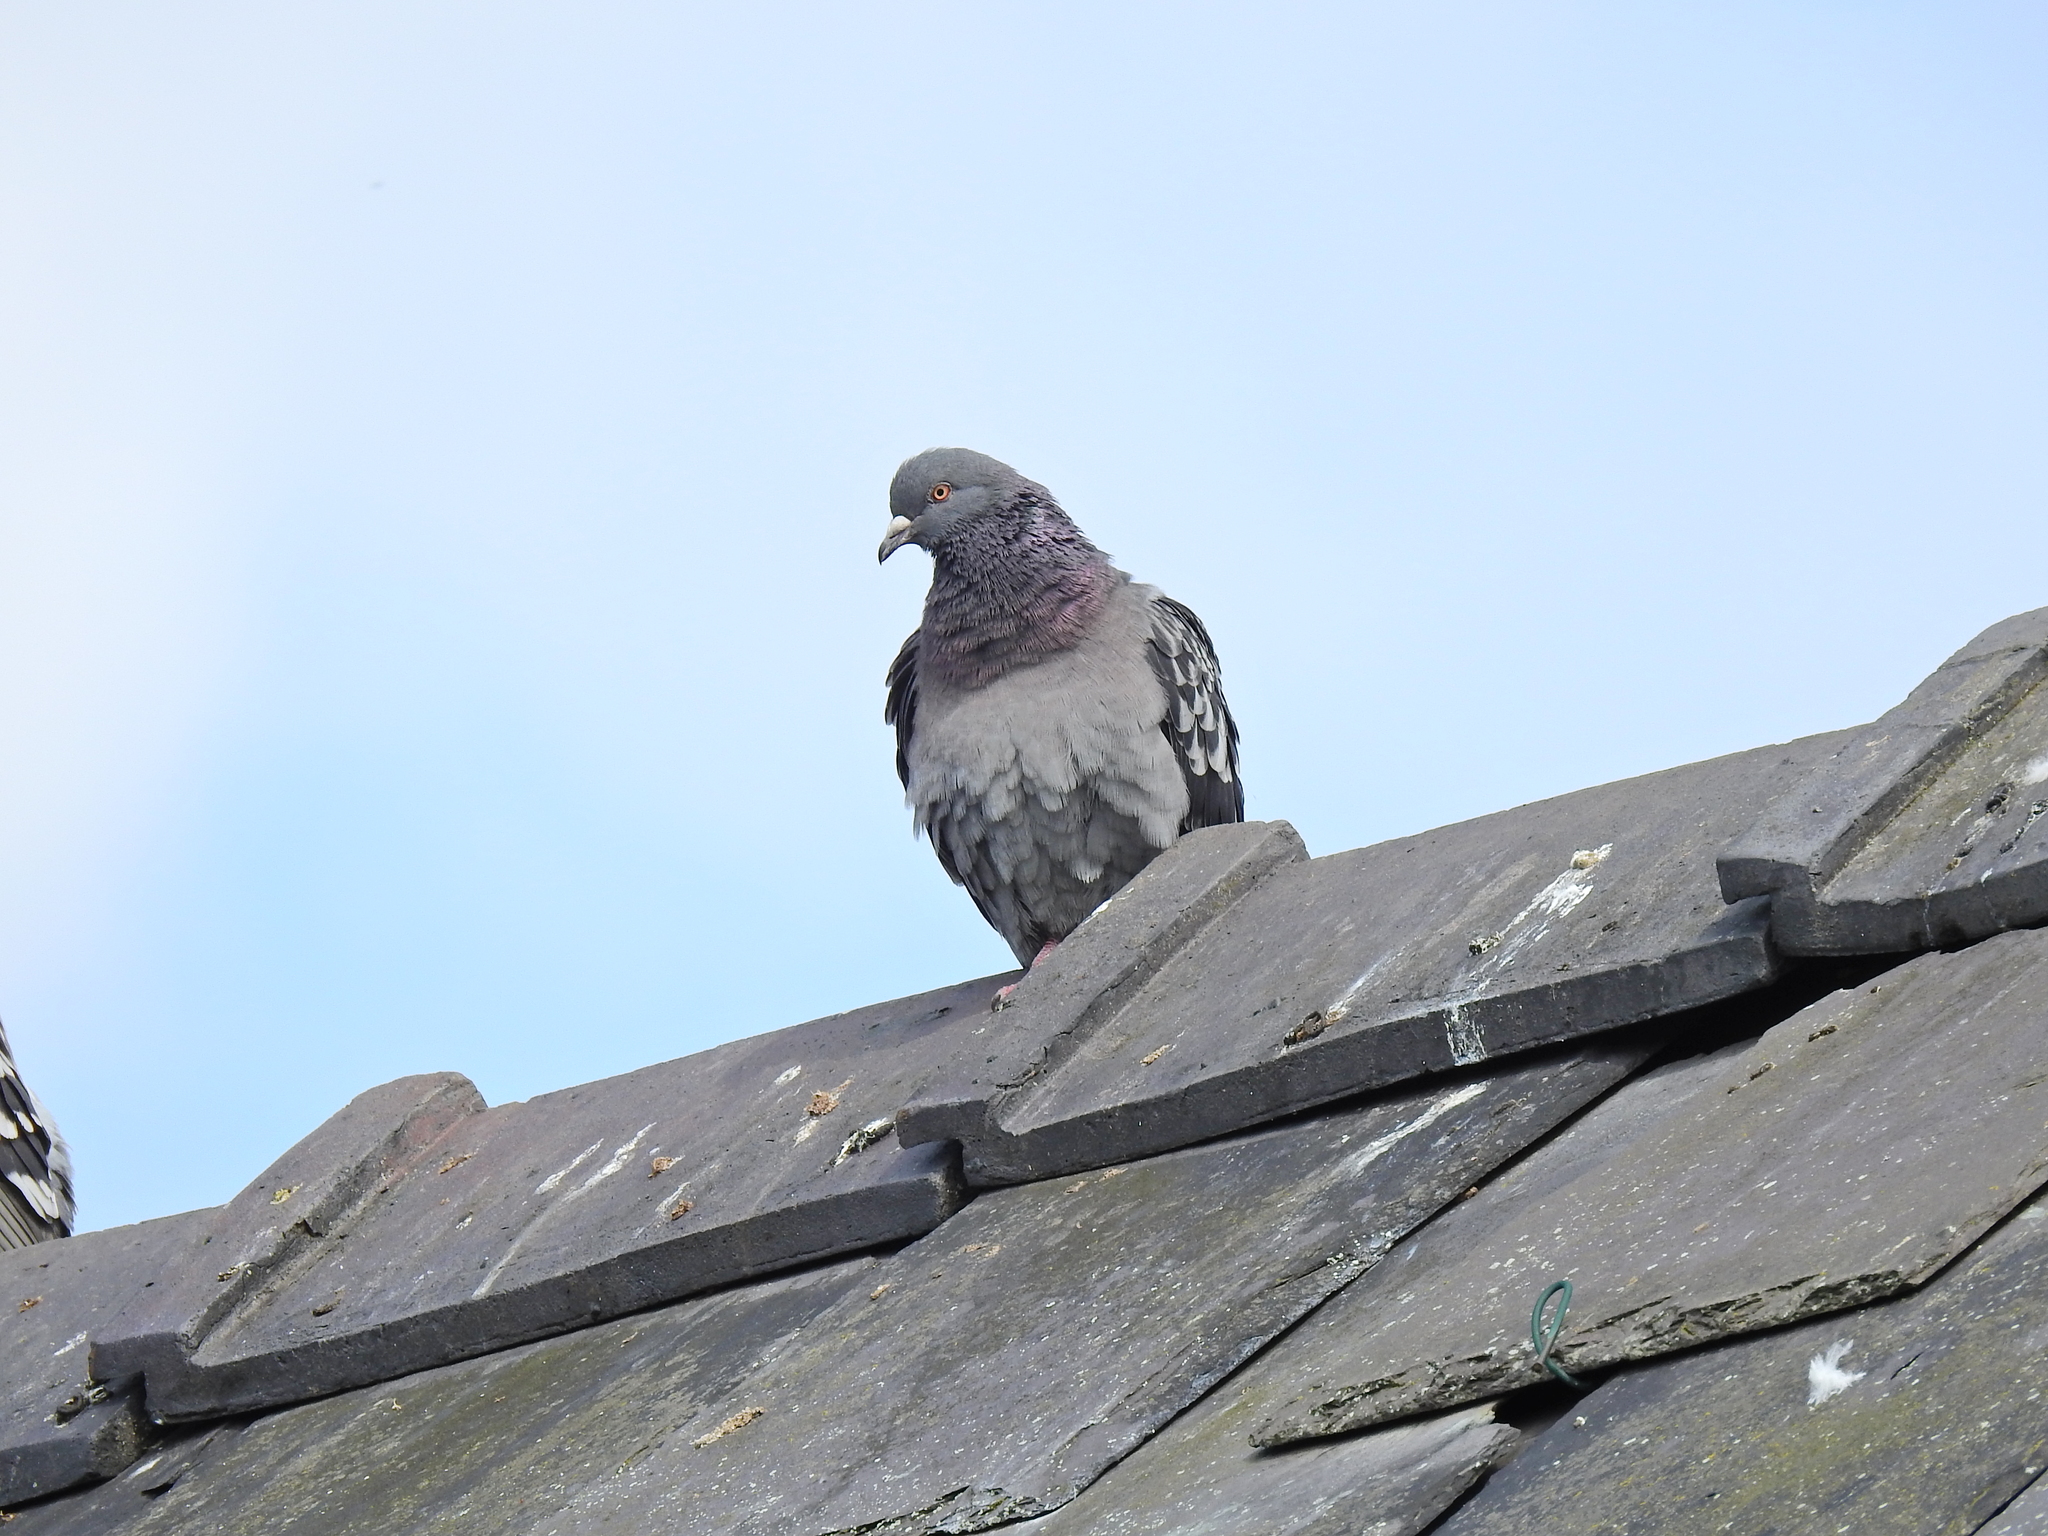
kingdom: Animalia
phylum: Chordata
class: Aves
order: Columbiformes
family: Columbidae
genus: Columba
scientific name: Columba livia
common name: Rock pigeon
